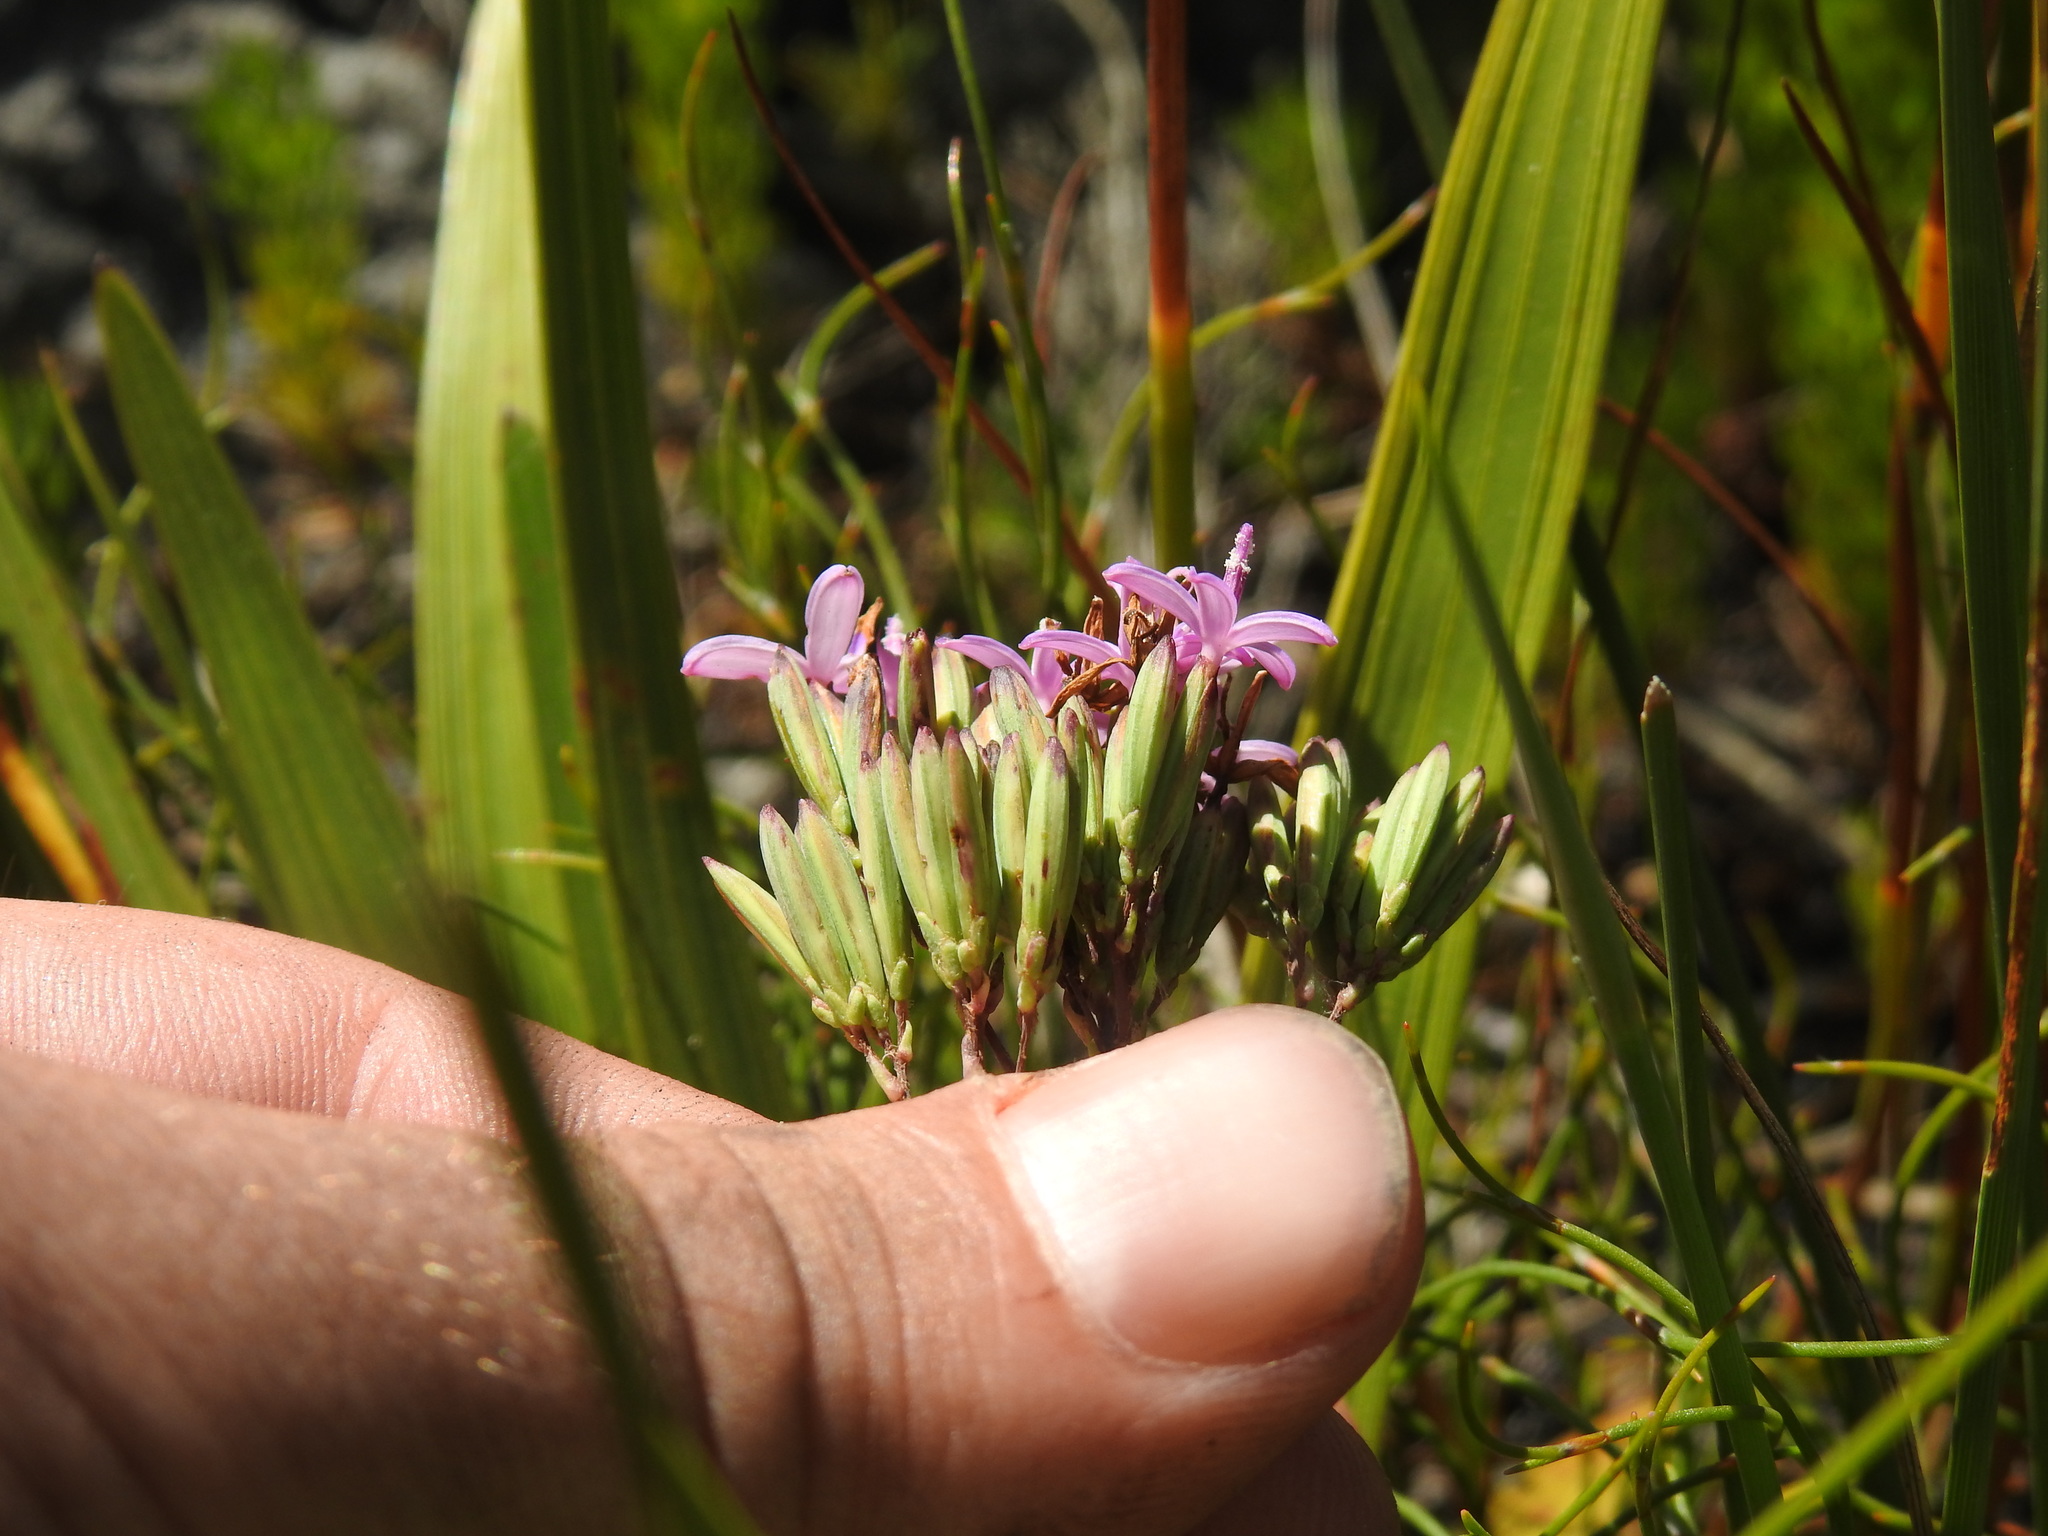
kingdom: Plantae
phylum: Tracheophyta
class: Magnoliopsida
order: Asterales
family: Asteraceae
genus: Corymbium
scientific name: Corymbium glabrum
